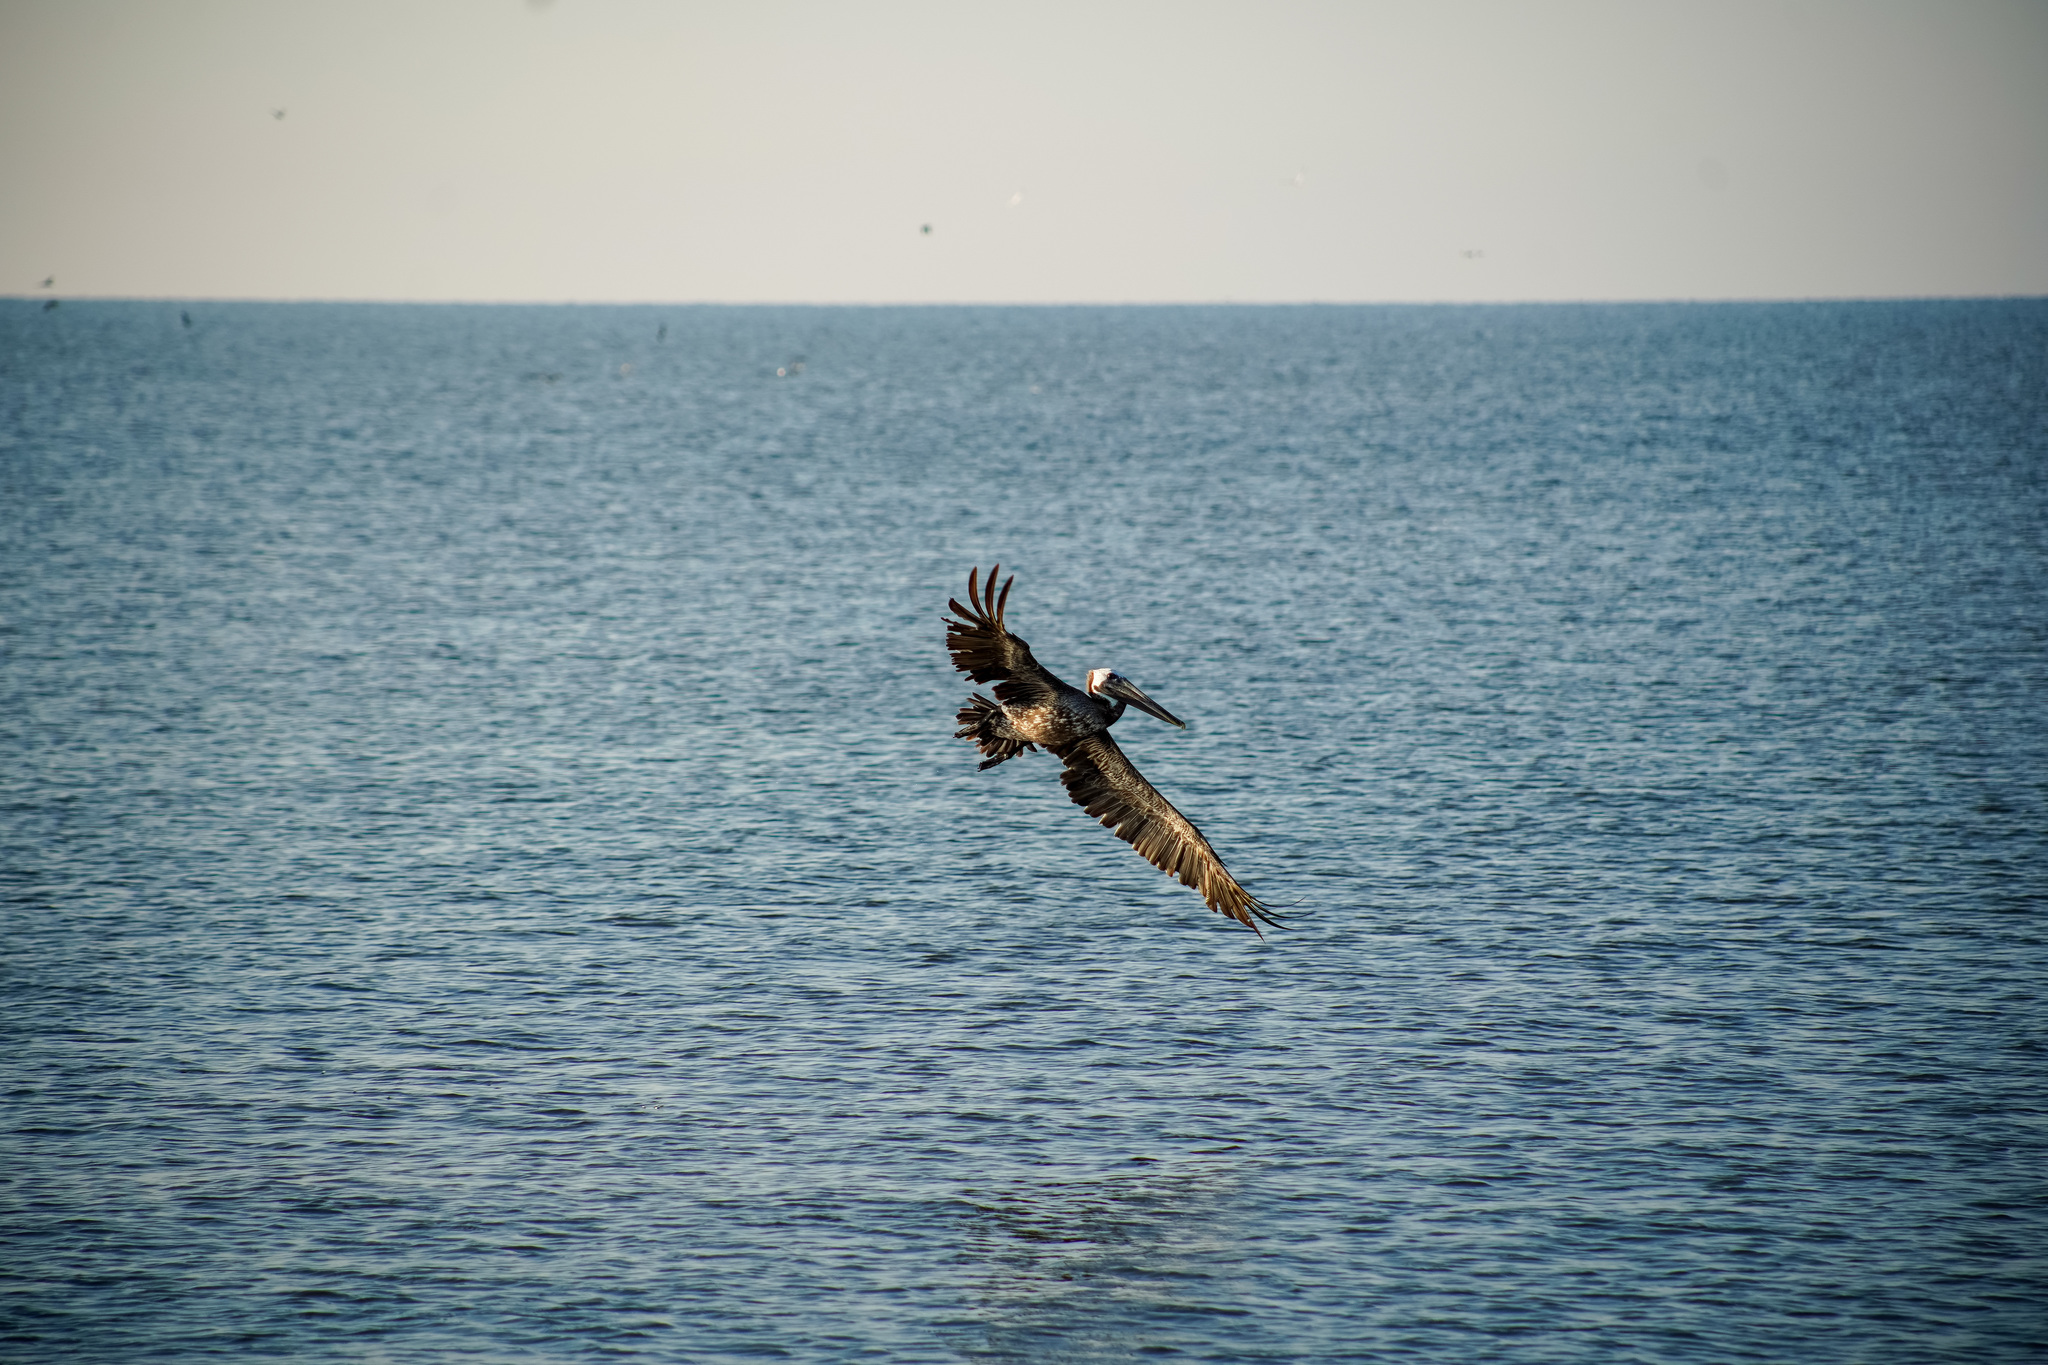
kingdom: Animalia
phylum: Chordata
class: Aves
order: Pelecaniformes
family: Pelecanidae
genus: Pelecanus
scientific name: Pelecanus occidentalis
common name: Brown pelican
